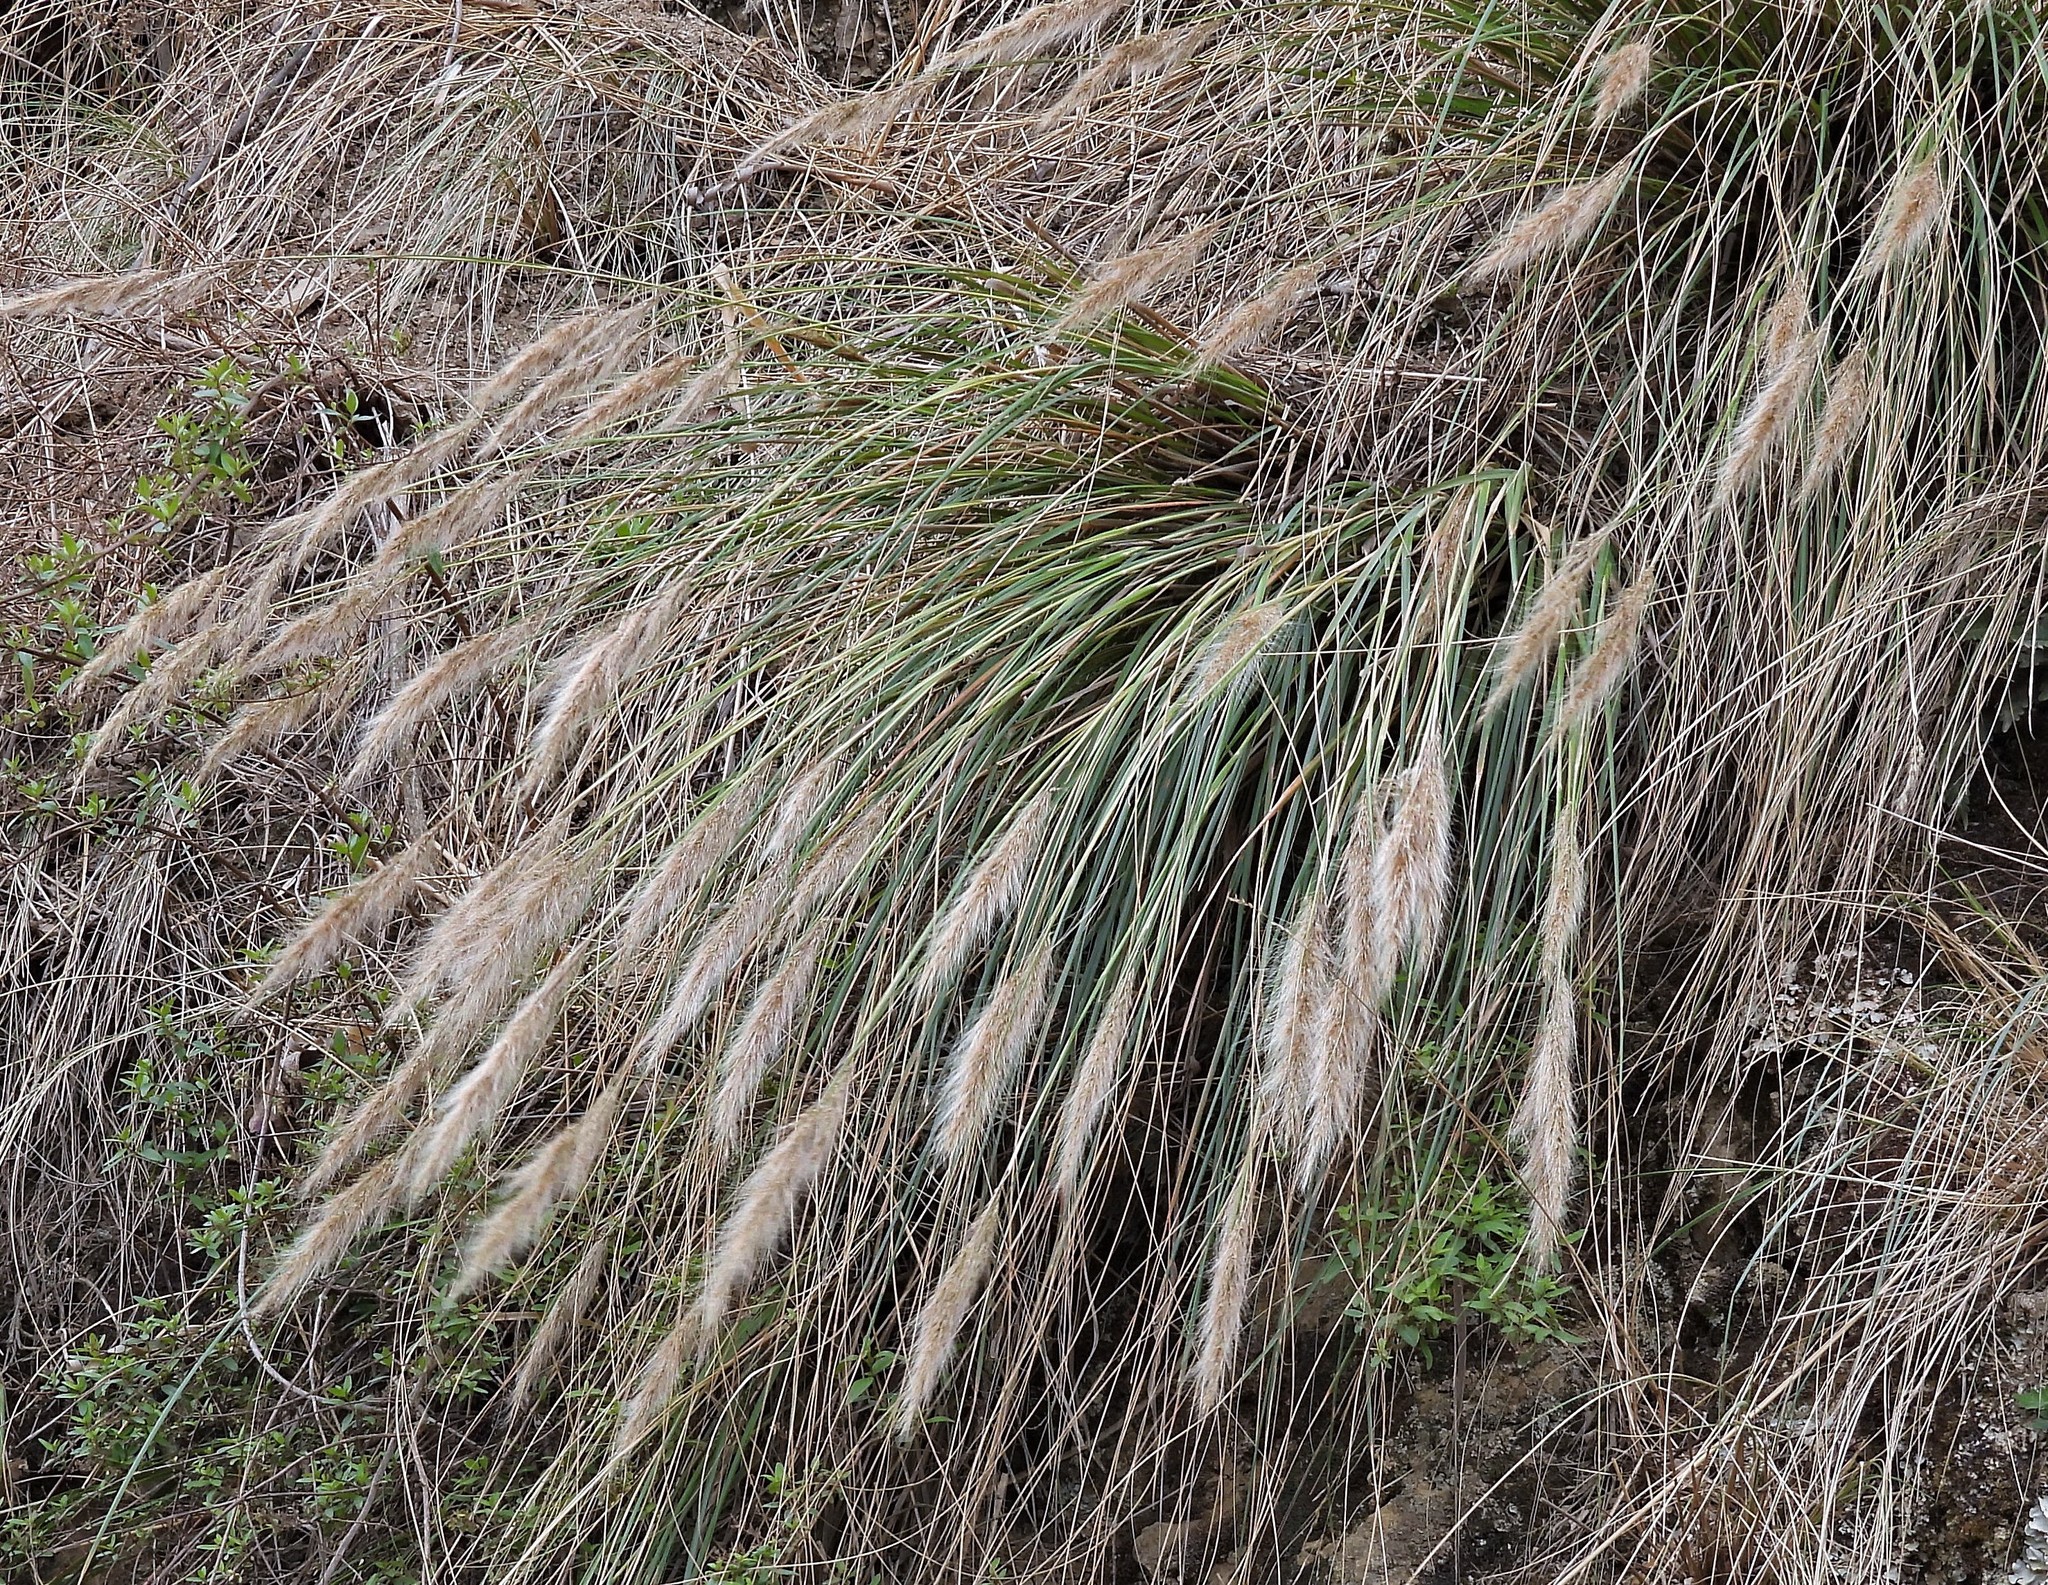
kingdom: Plantae
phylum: Tracheophyta
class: Liliopsida
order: Poales
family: Poaceae
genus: Cortaderia
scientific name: Cortaderia hieronymi
